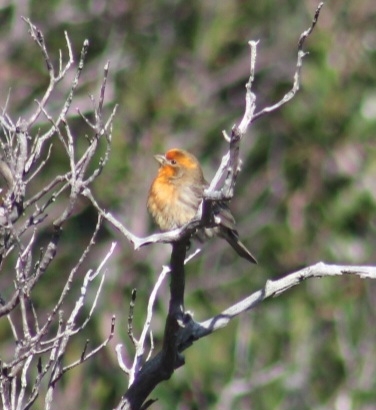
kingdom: Animalia
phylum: Chordata
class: Aves
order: Passeriformes
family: Fringillidae
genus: Haemorhous
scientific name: Haemorhous mexicanus
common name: House finch
